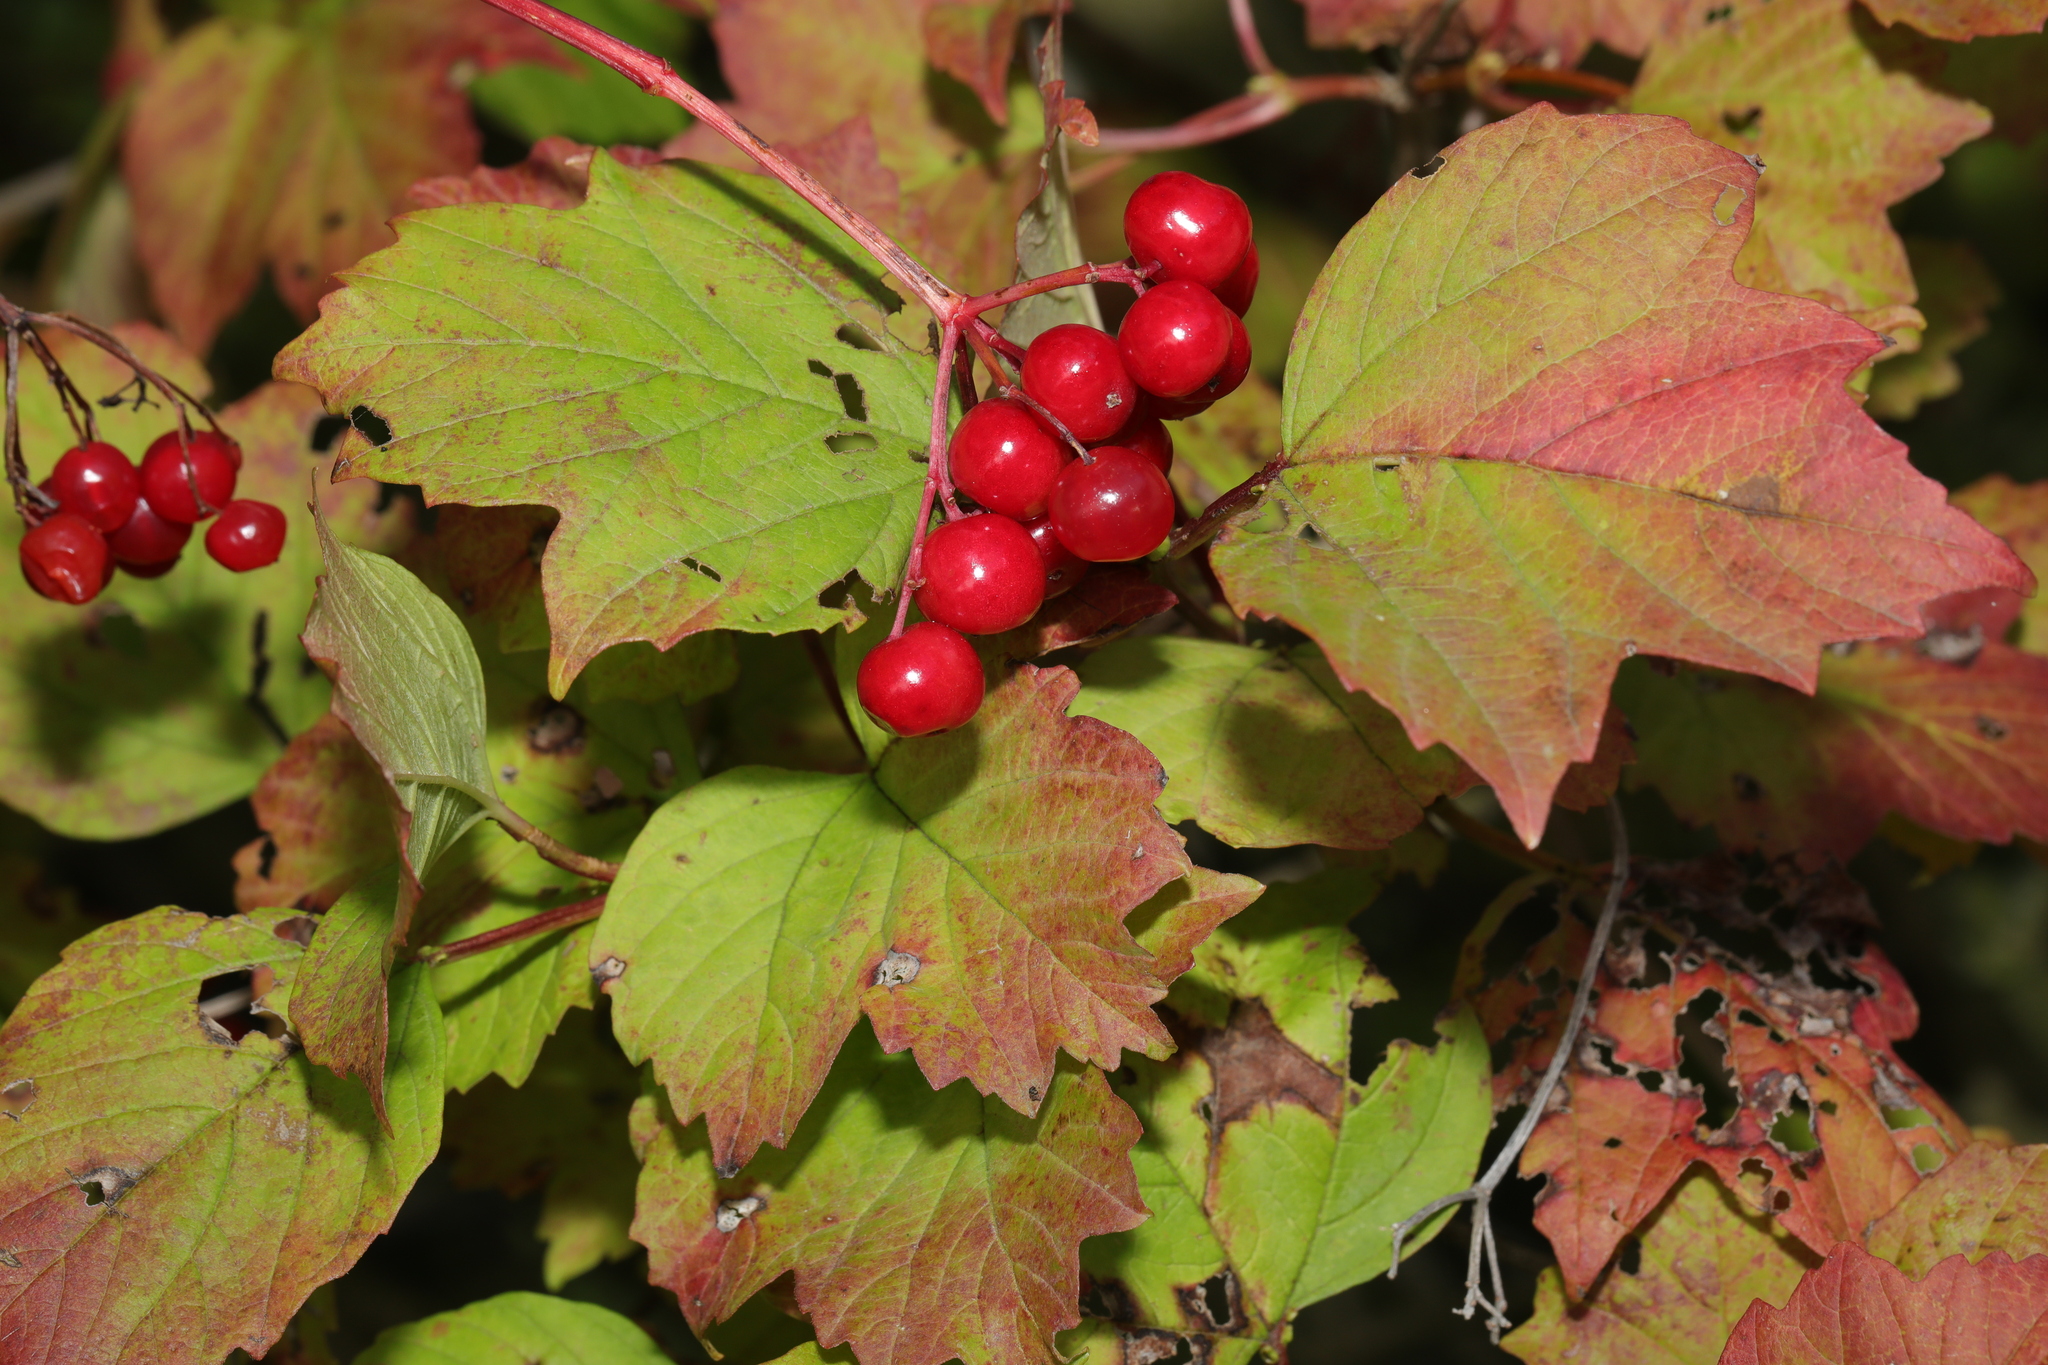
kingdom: Plantae
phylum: Tracheophyta
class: Magnoliopsida
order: Dipsacales
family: Viburnaceae
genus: Viburnum
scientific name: Viburnum opulus
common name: Guelder-rose
